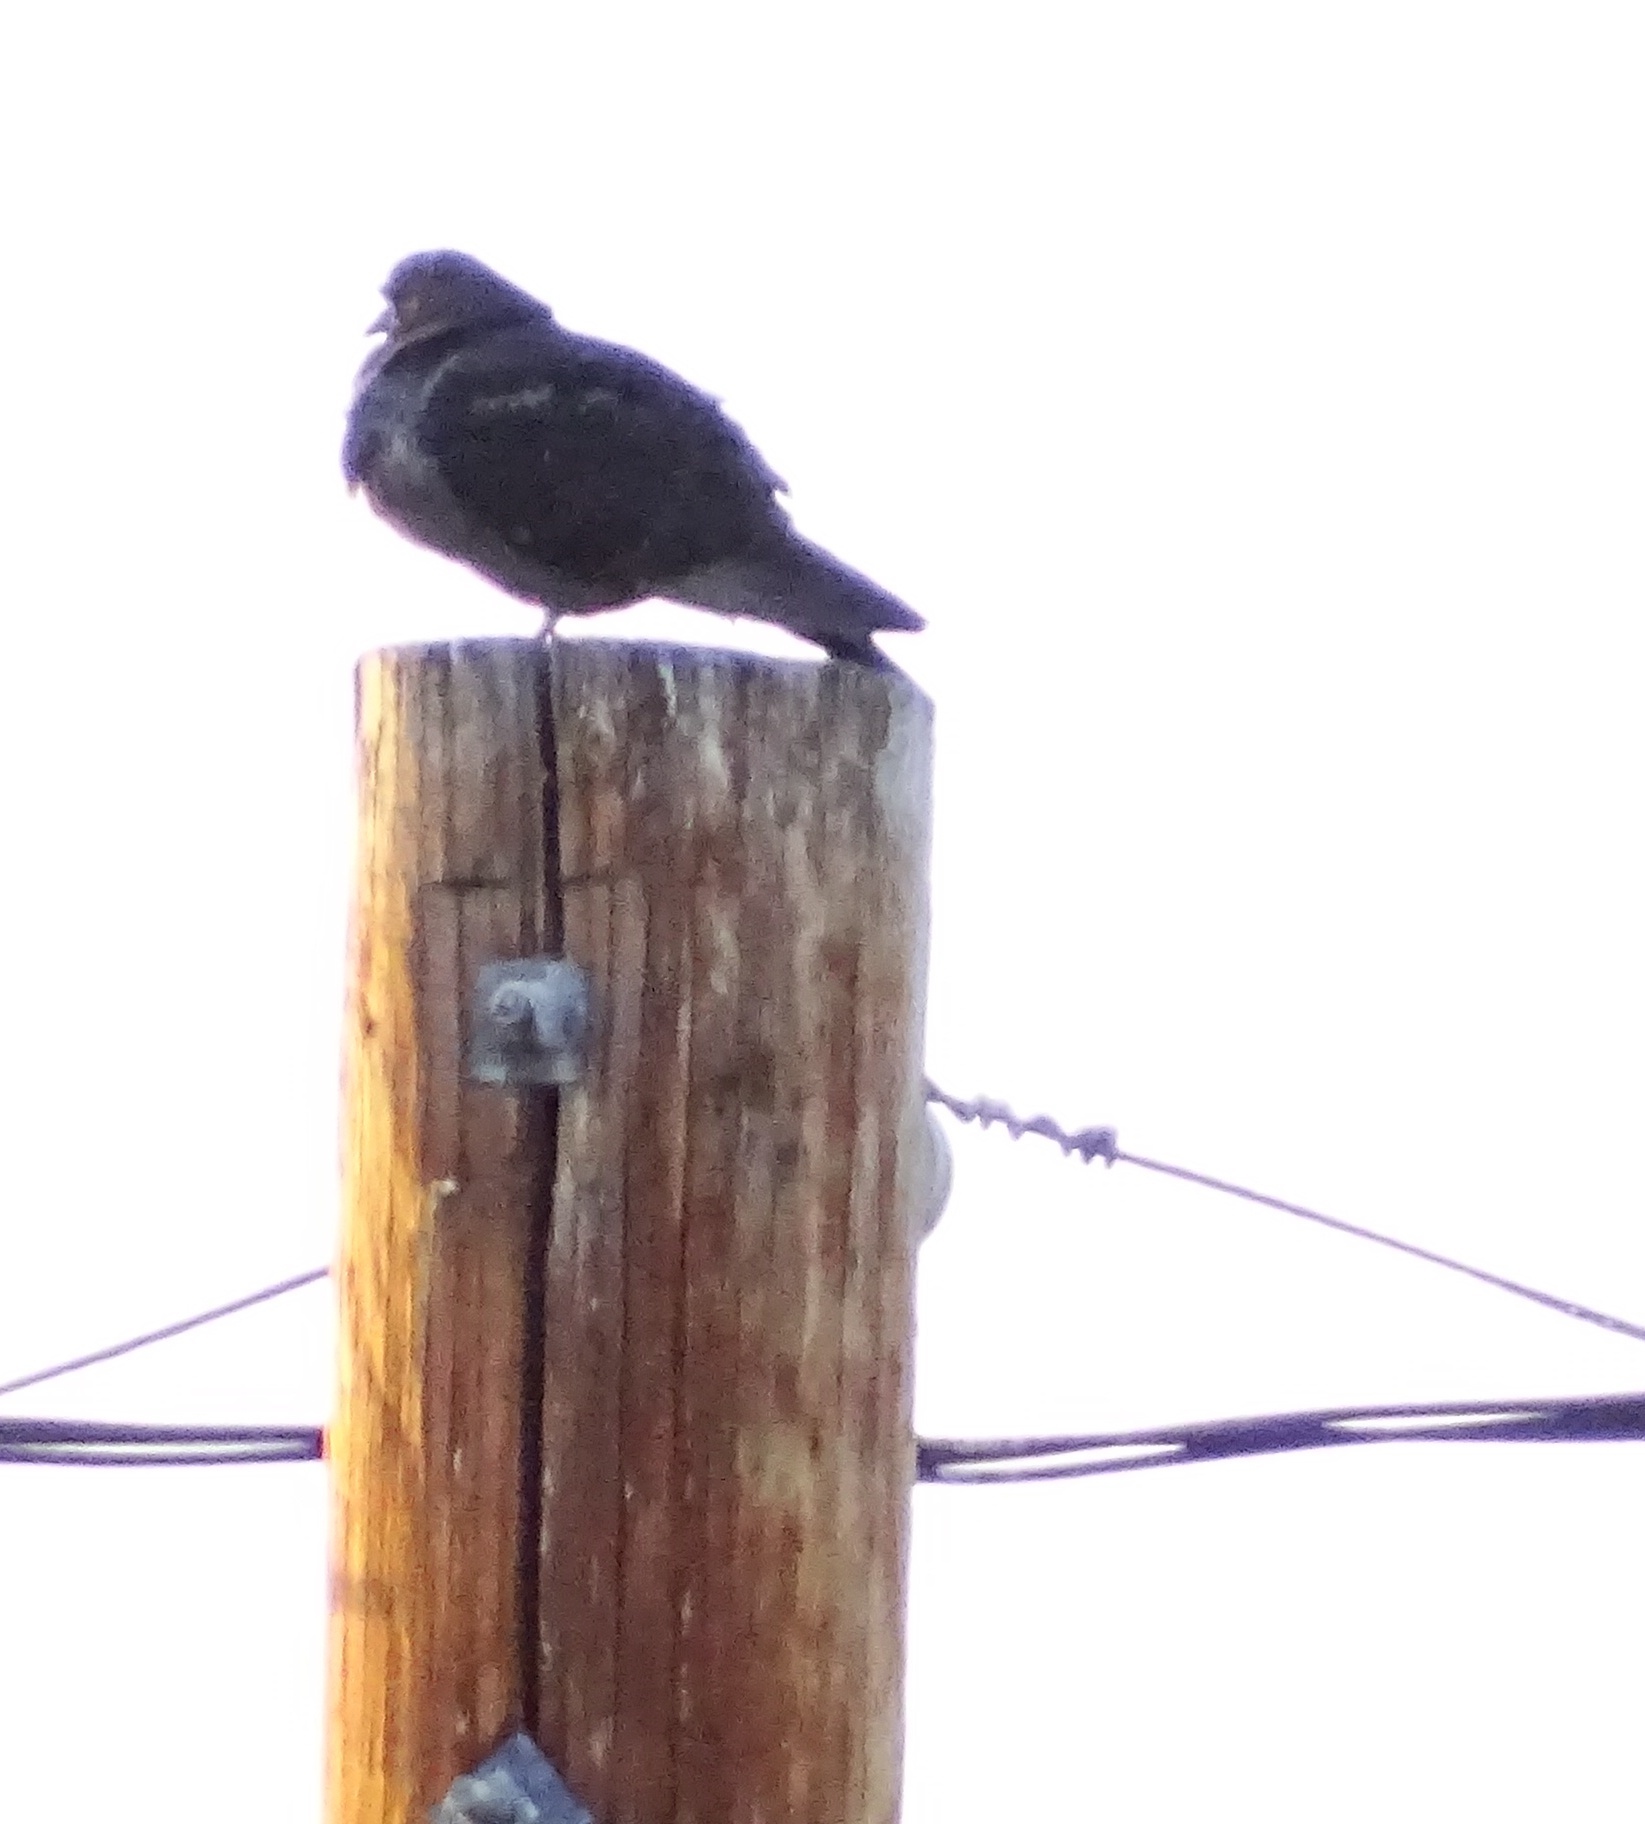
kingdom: Animalia
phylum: Chordata
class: Aves
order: Columbiformes
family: Columbidae
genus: Columba
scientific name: Columba livia
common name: Rock pigeon
